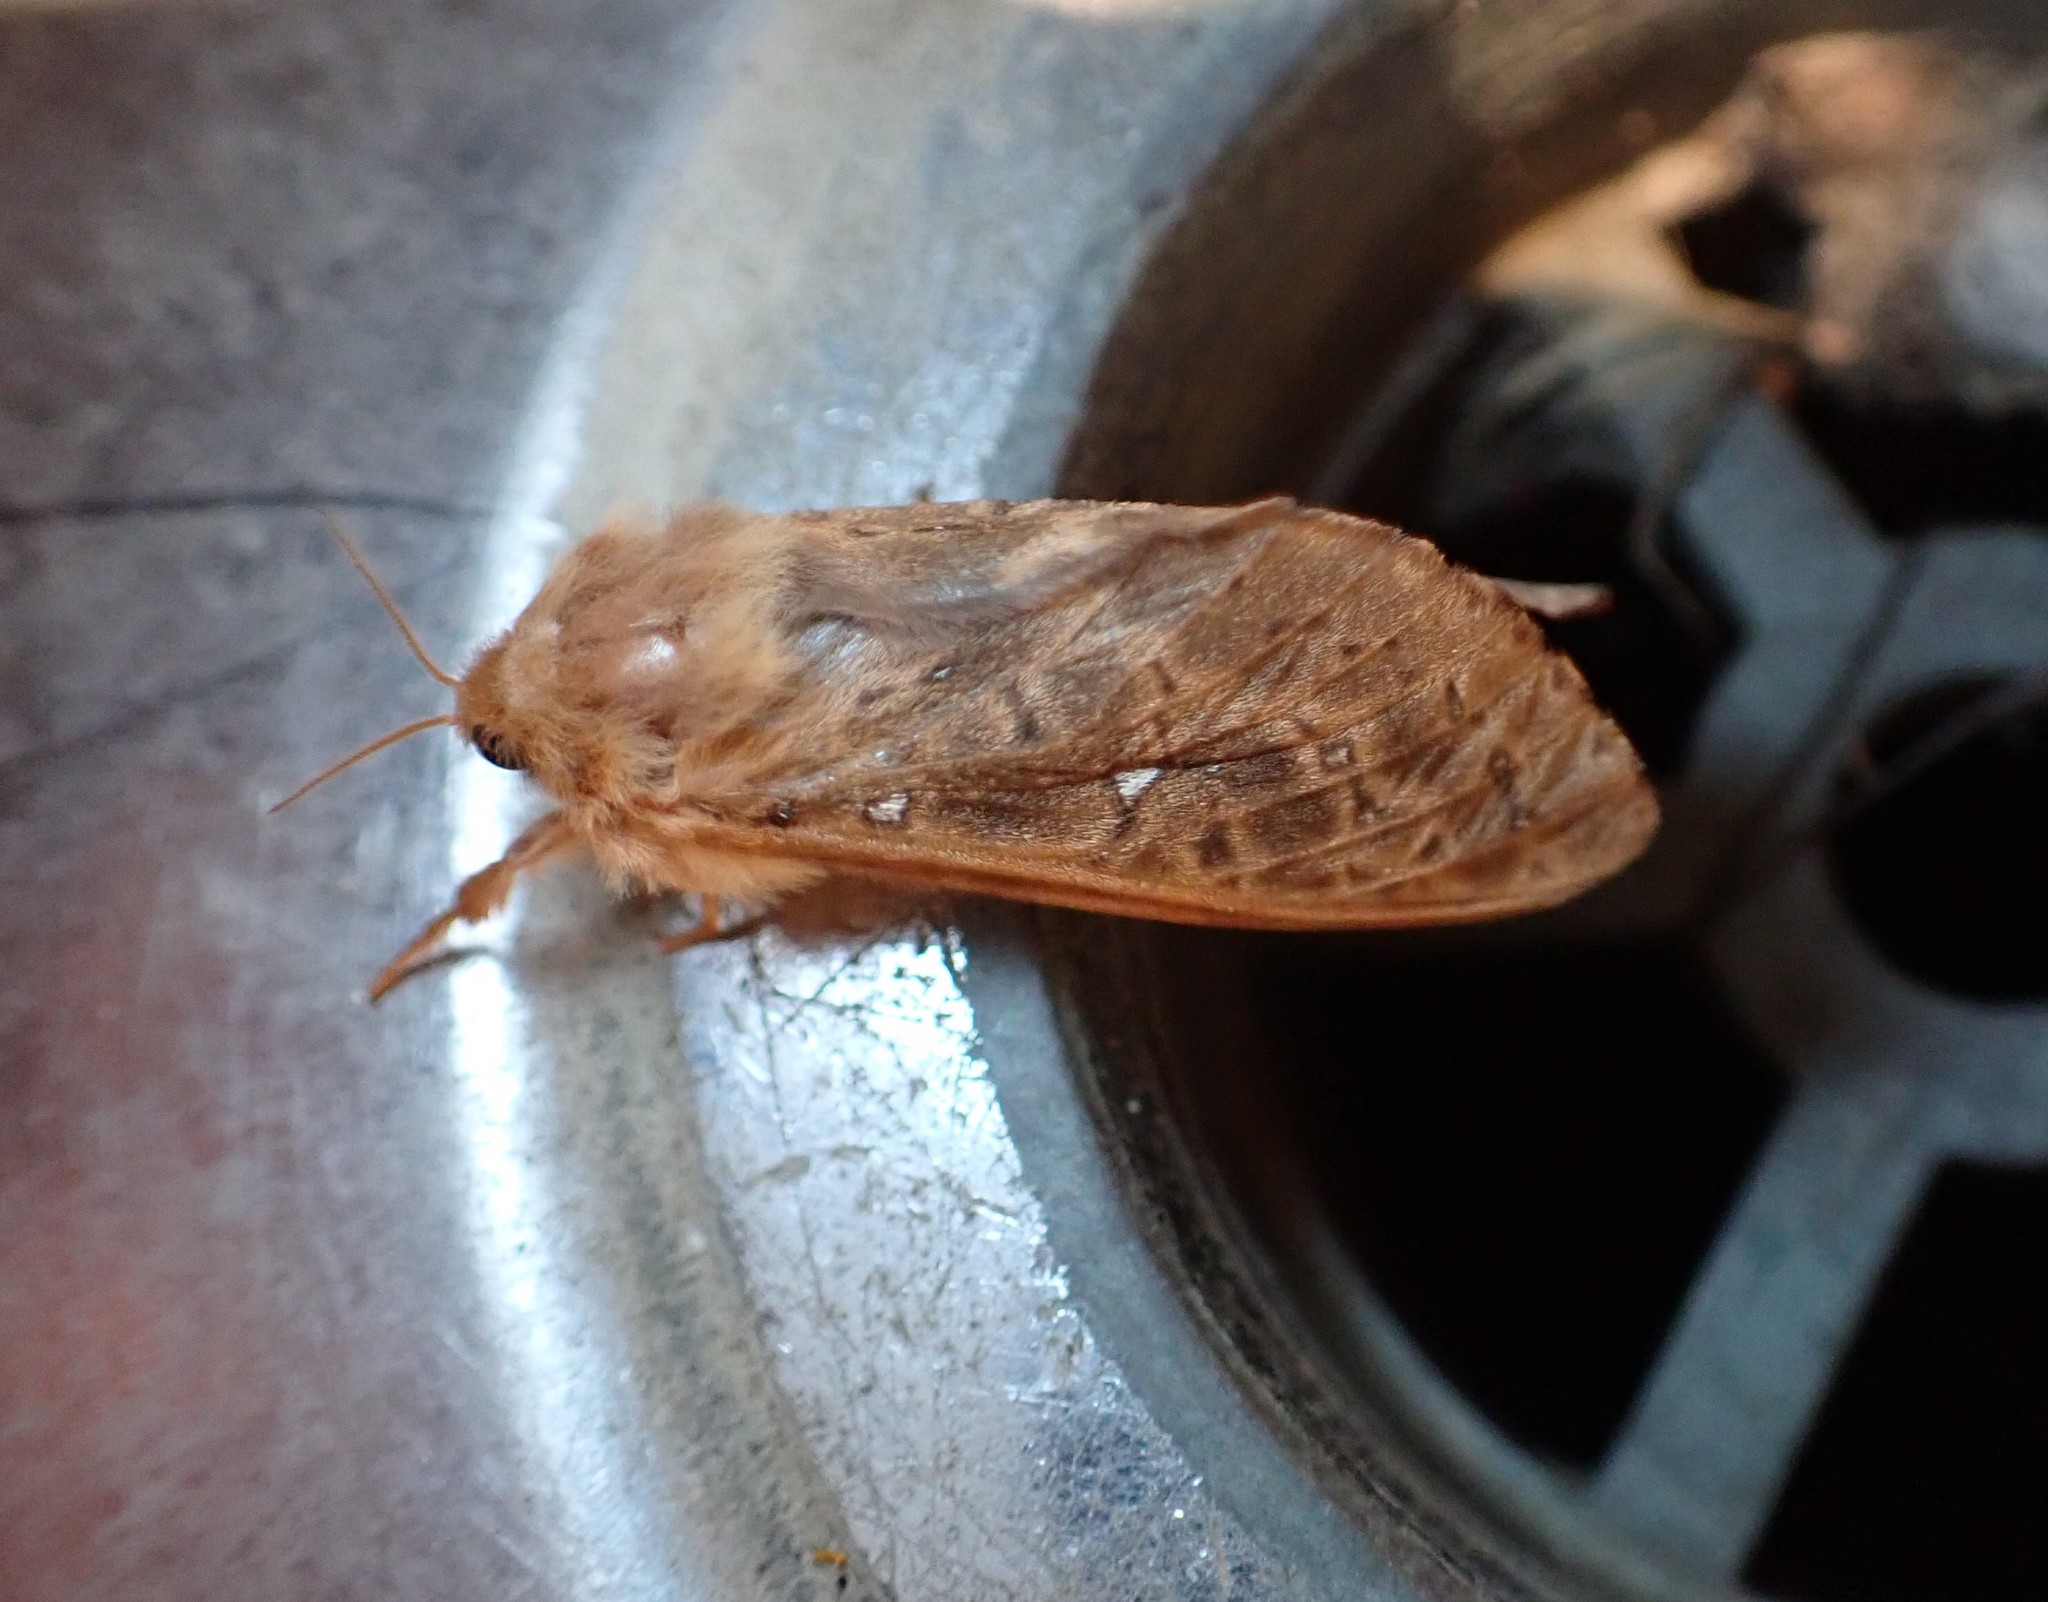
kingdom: Animalia
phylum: Arthropoda
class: Insecta
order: Lepidoptera
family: Hepialidae
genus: Wiseana
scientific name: Wiseana cervinata
